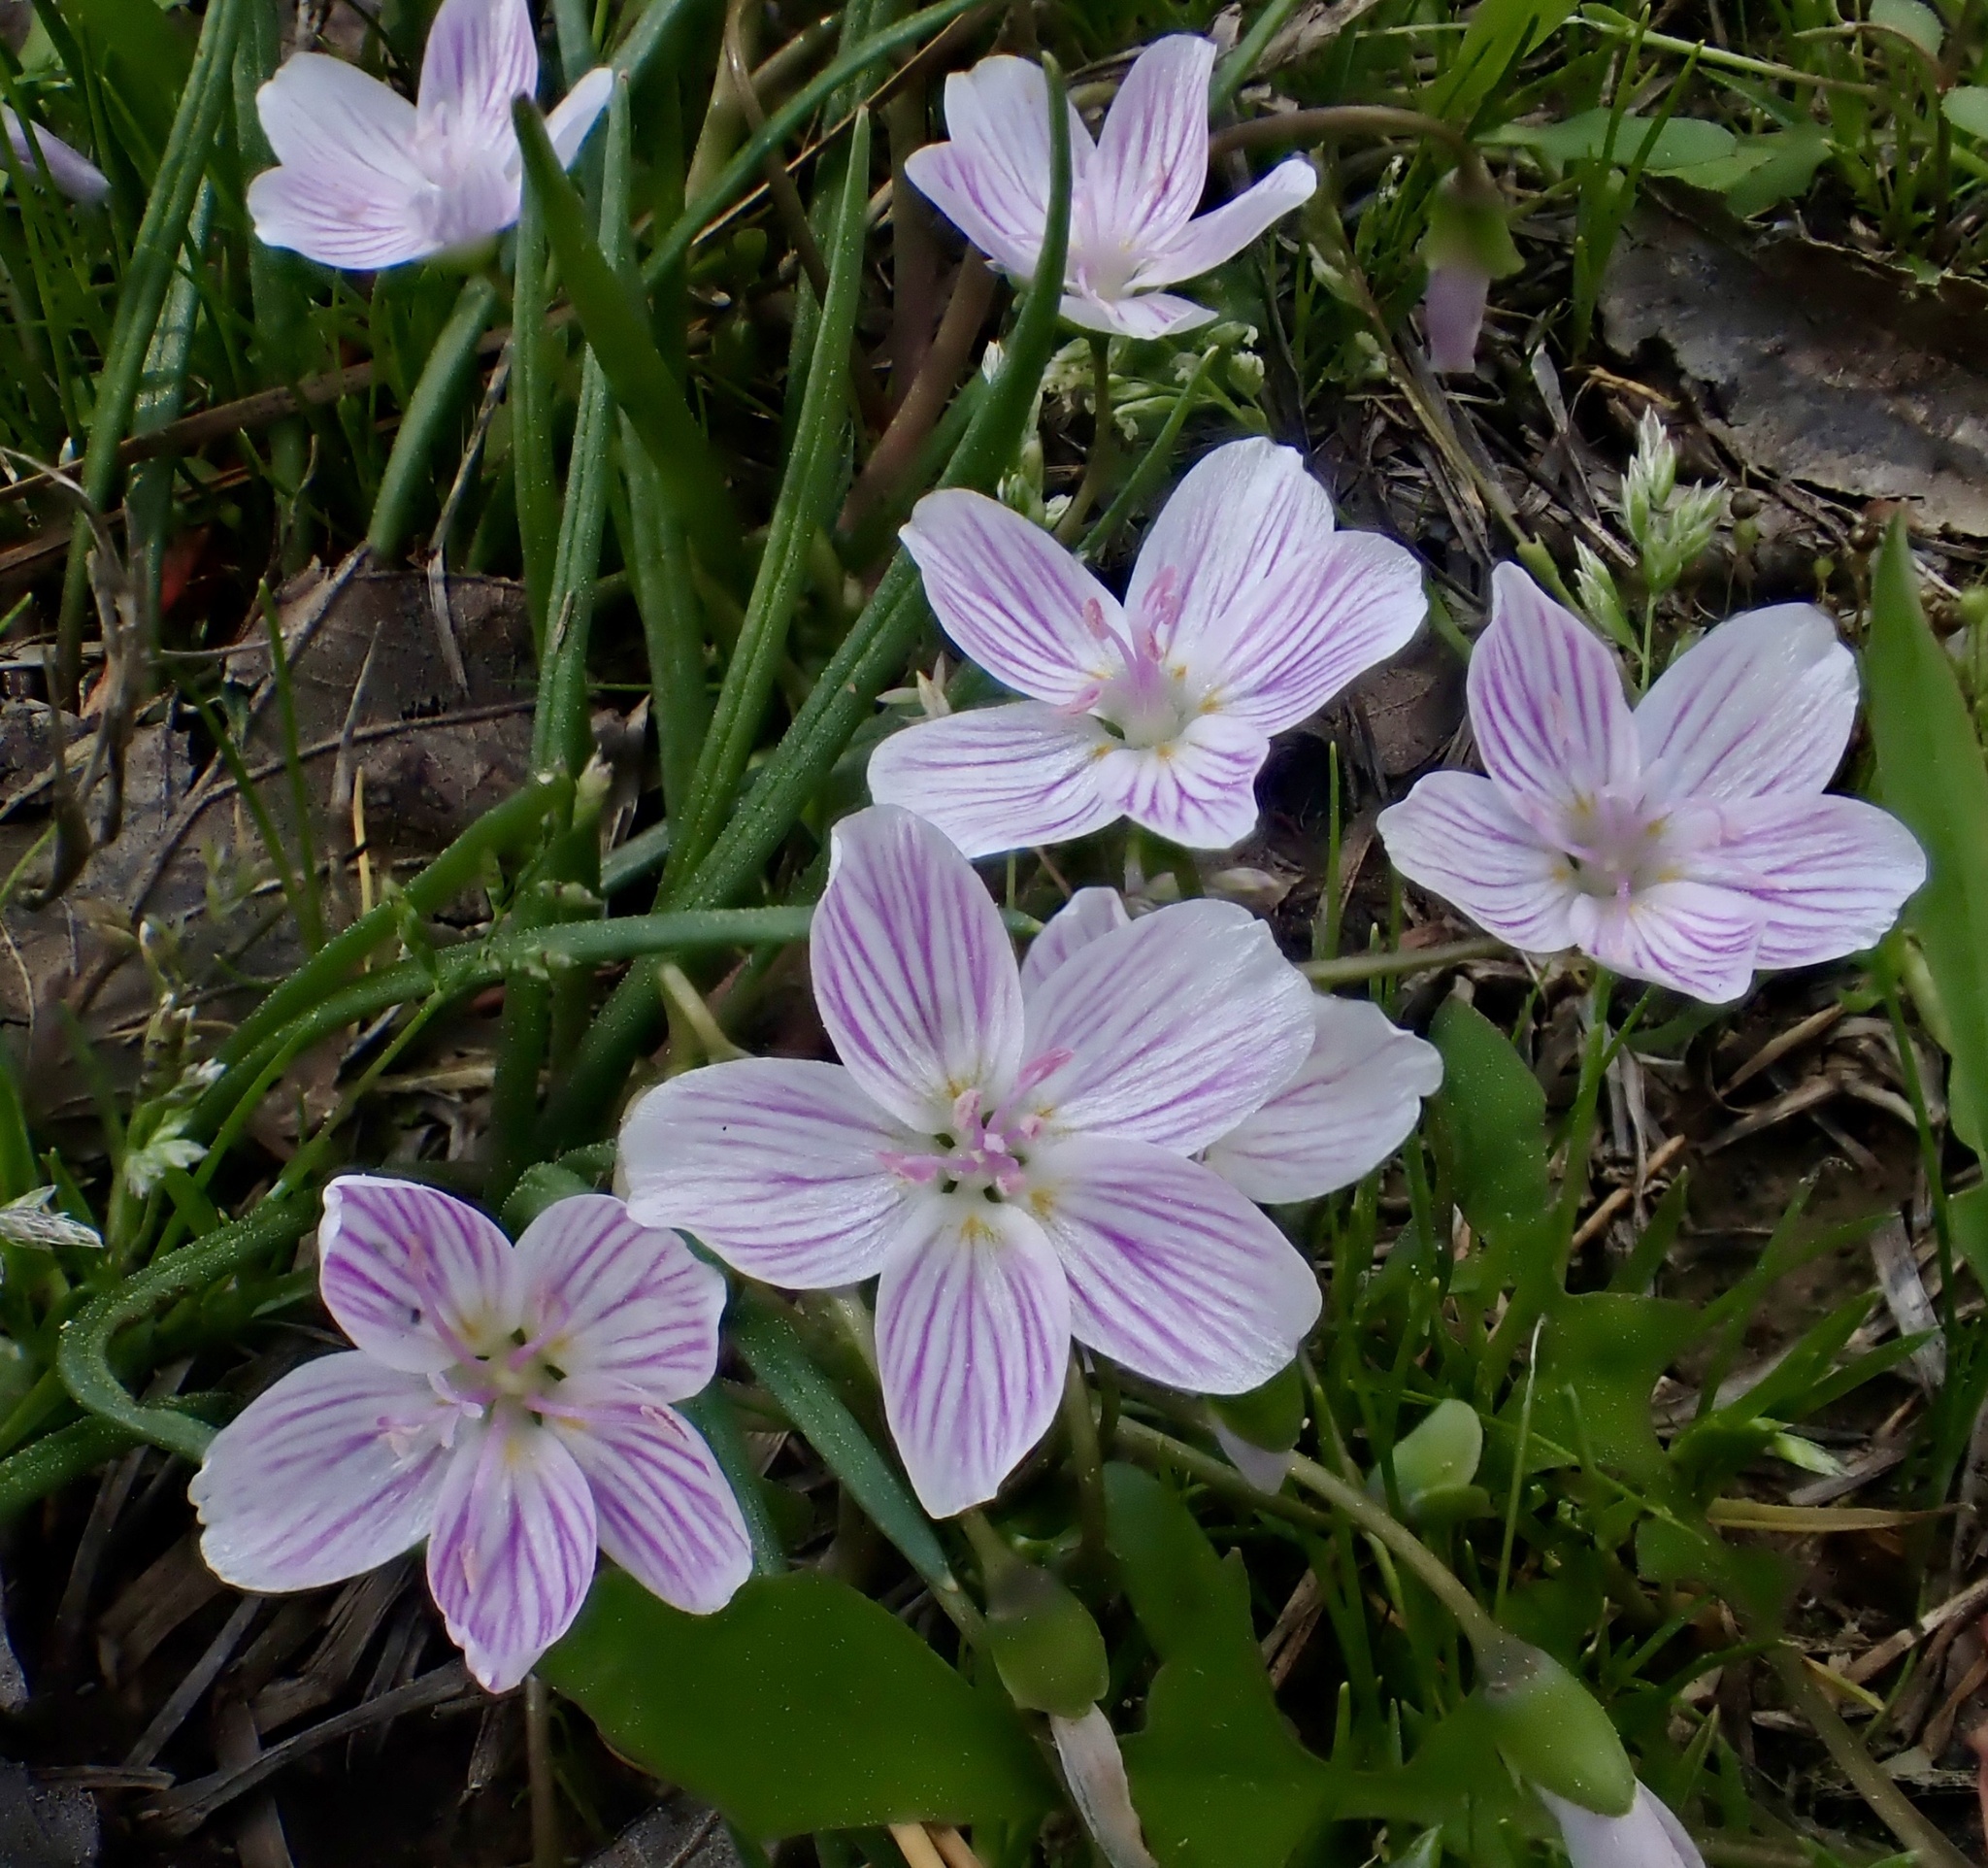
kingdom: Plantae
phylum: Tracheophyta
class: Magnoliopsida
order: Caryophyllales
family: Montiaceae
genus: Claytonia
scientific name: Claytonia virginica
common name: Virginia springbeauty
